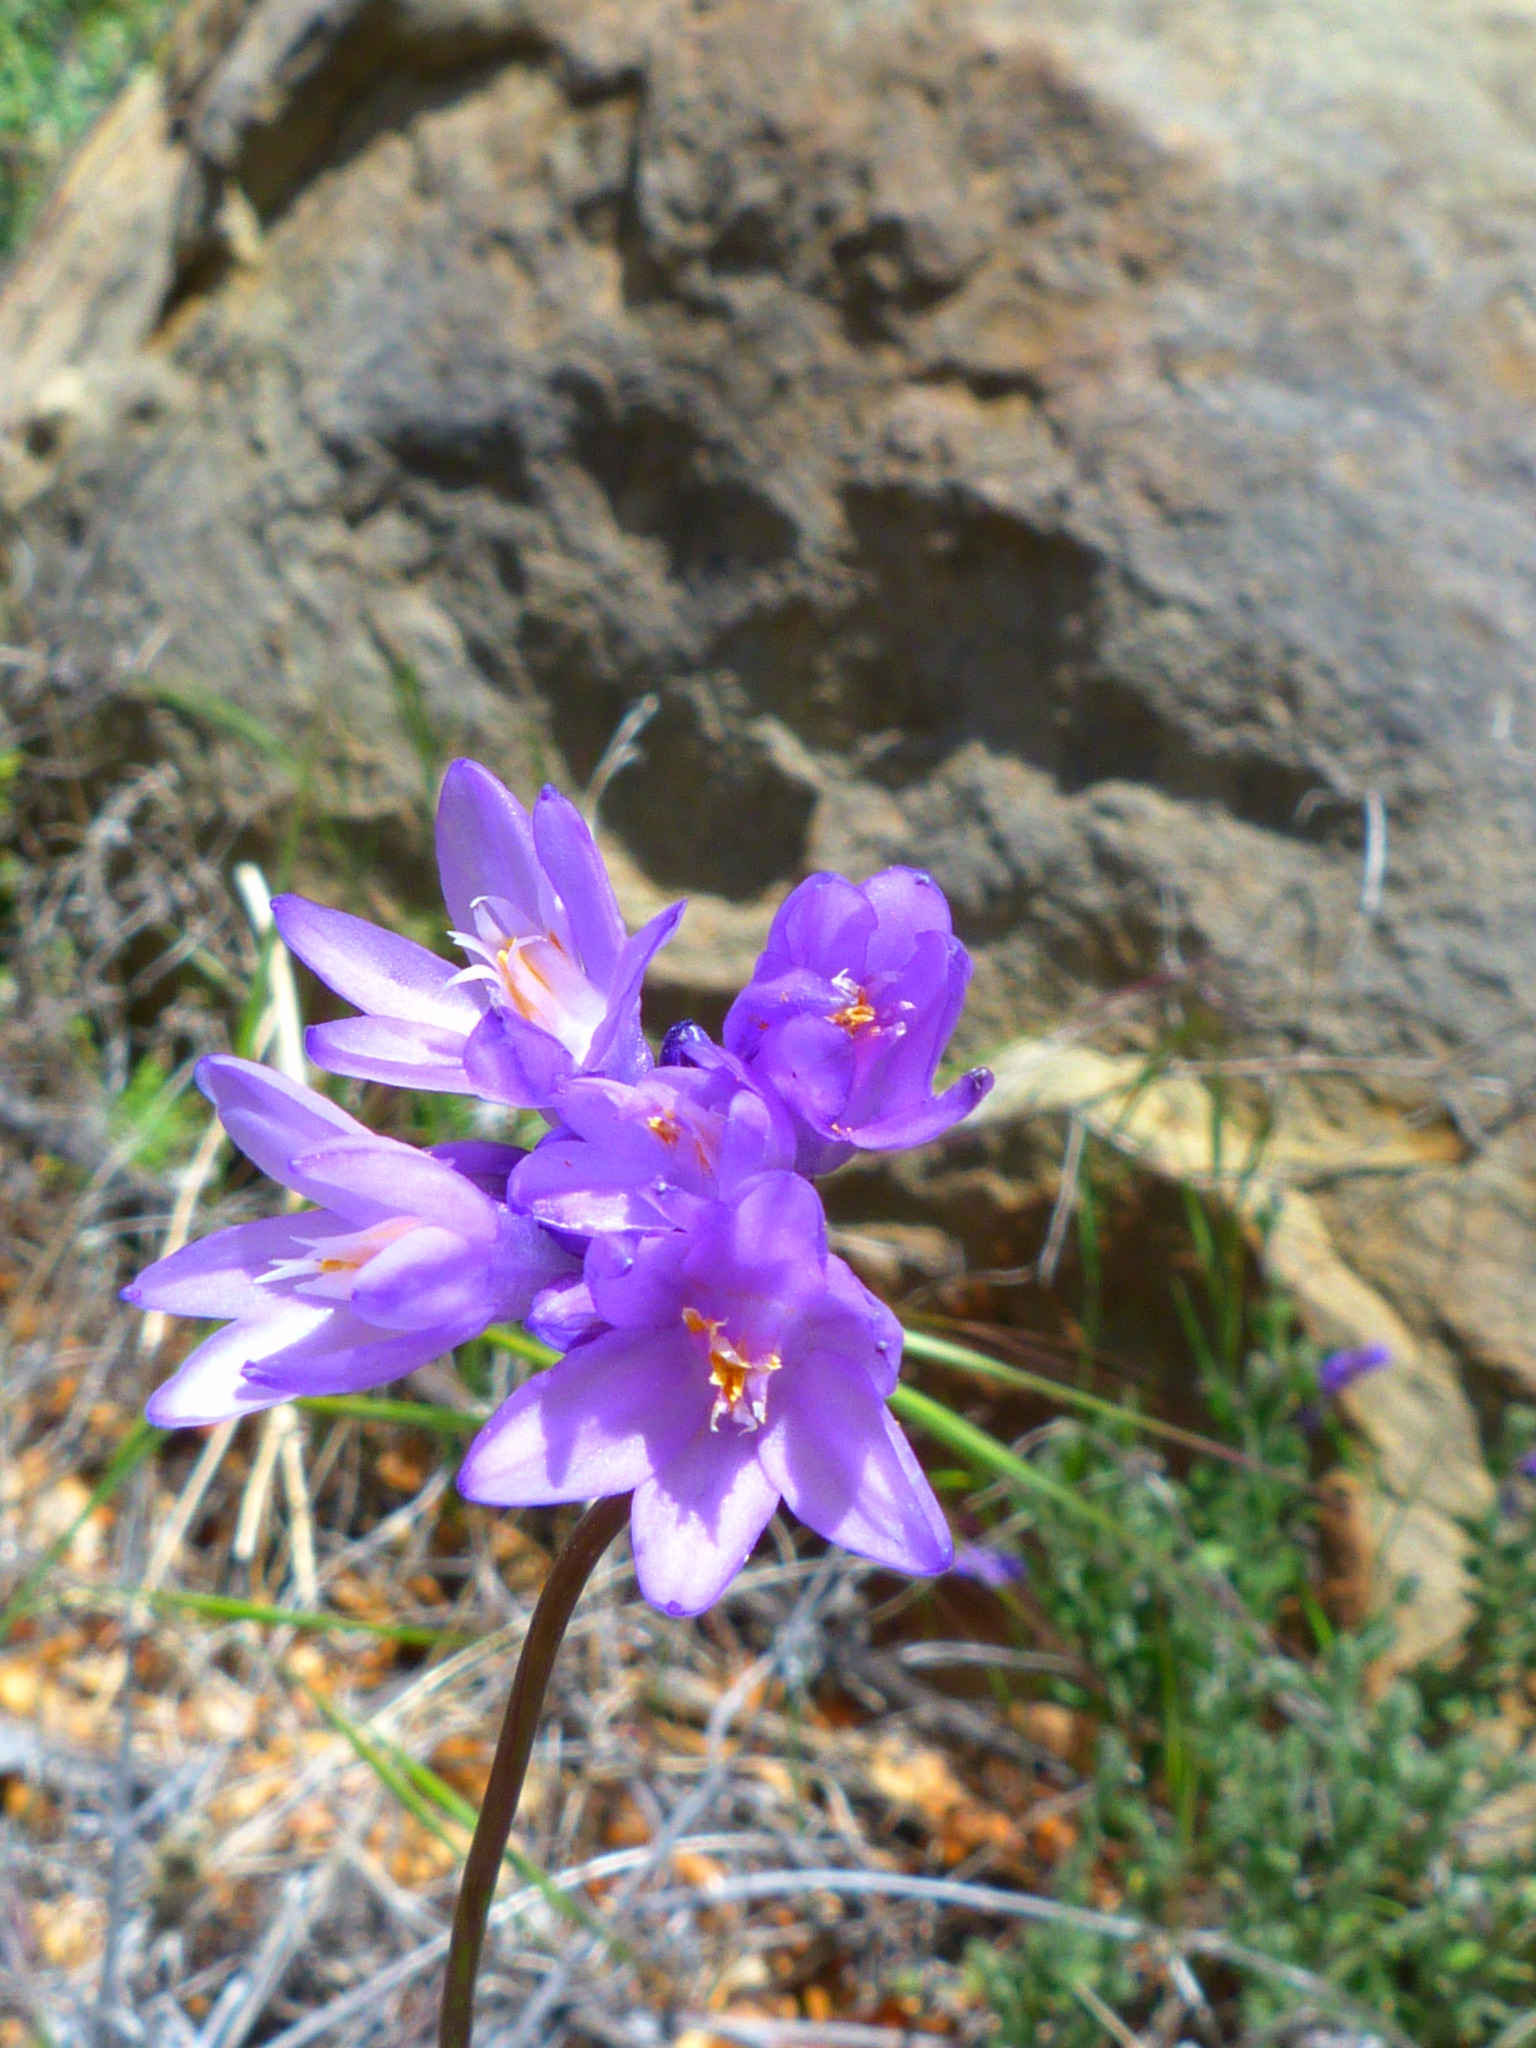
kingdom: Plantae
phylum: Tracheophyta
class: Liliopsida
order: Asparagales
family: Asparagaceae
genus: Dipterostemon
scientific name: Dipterostemon capitatus
